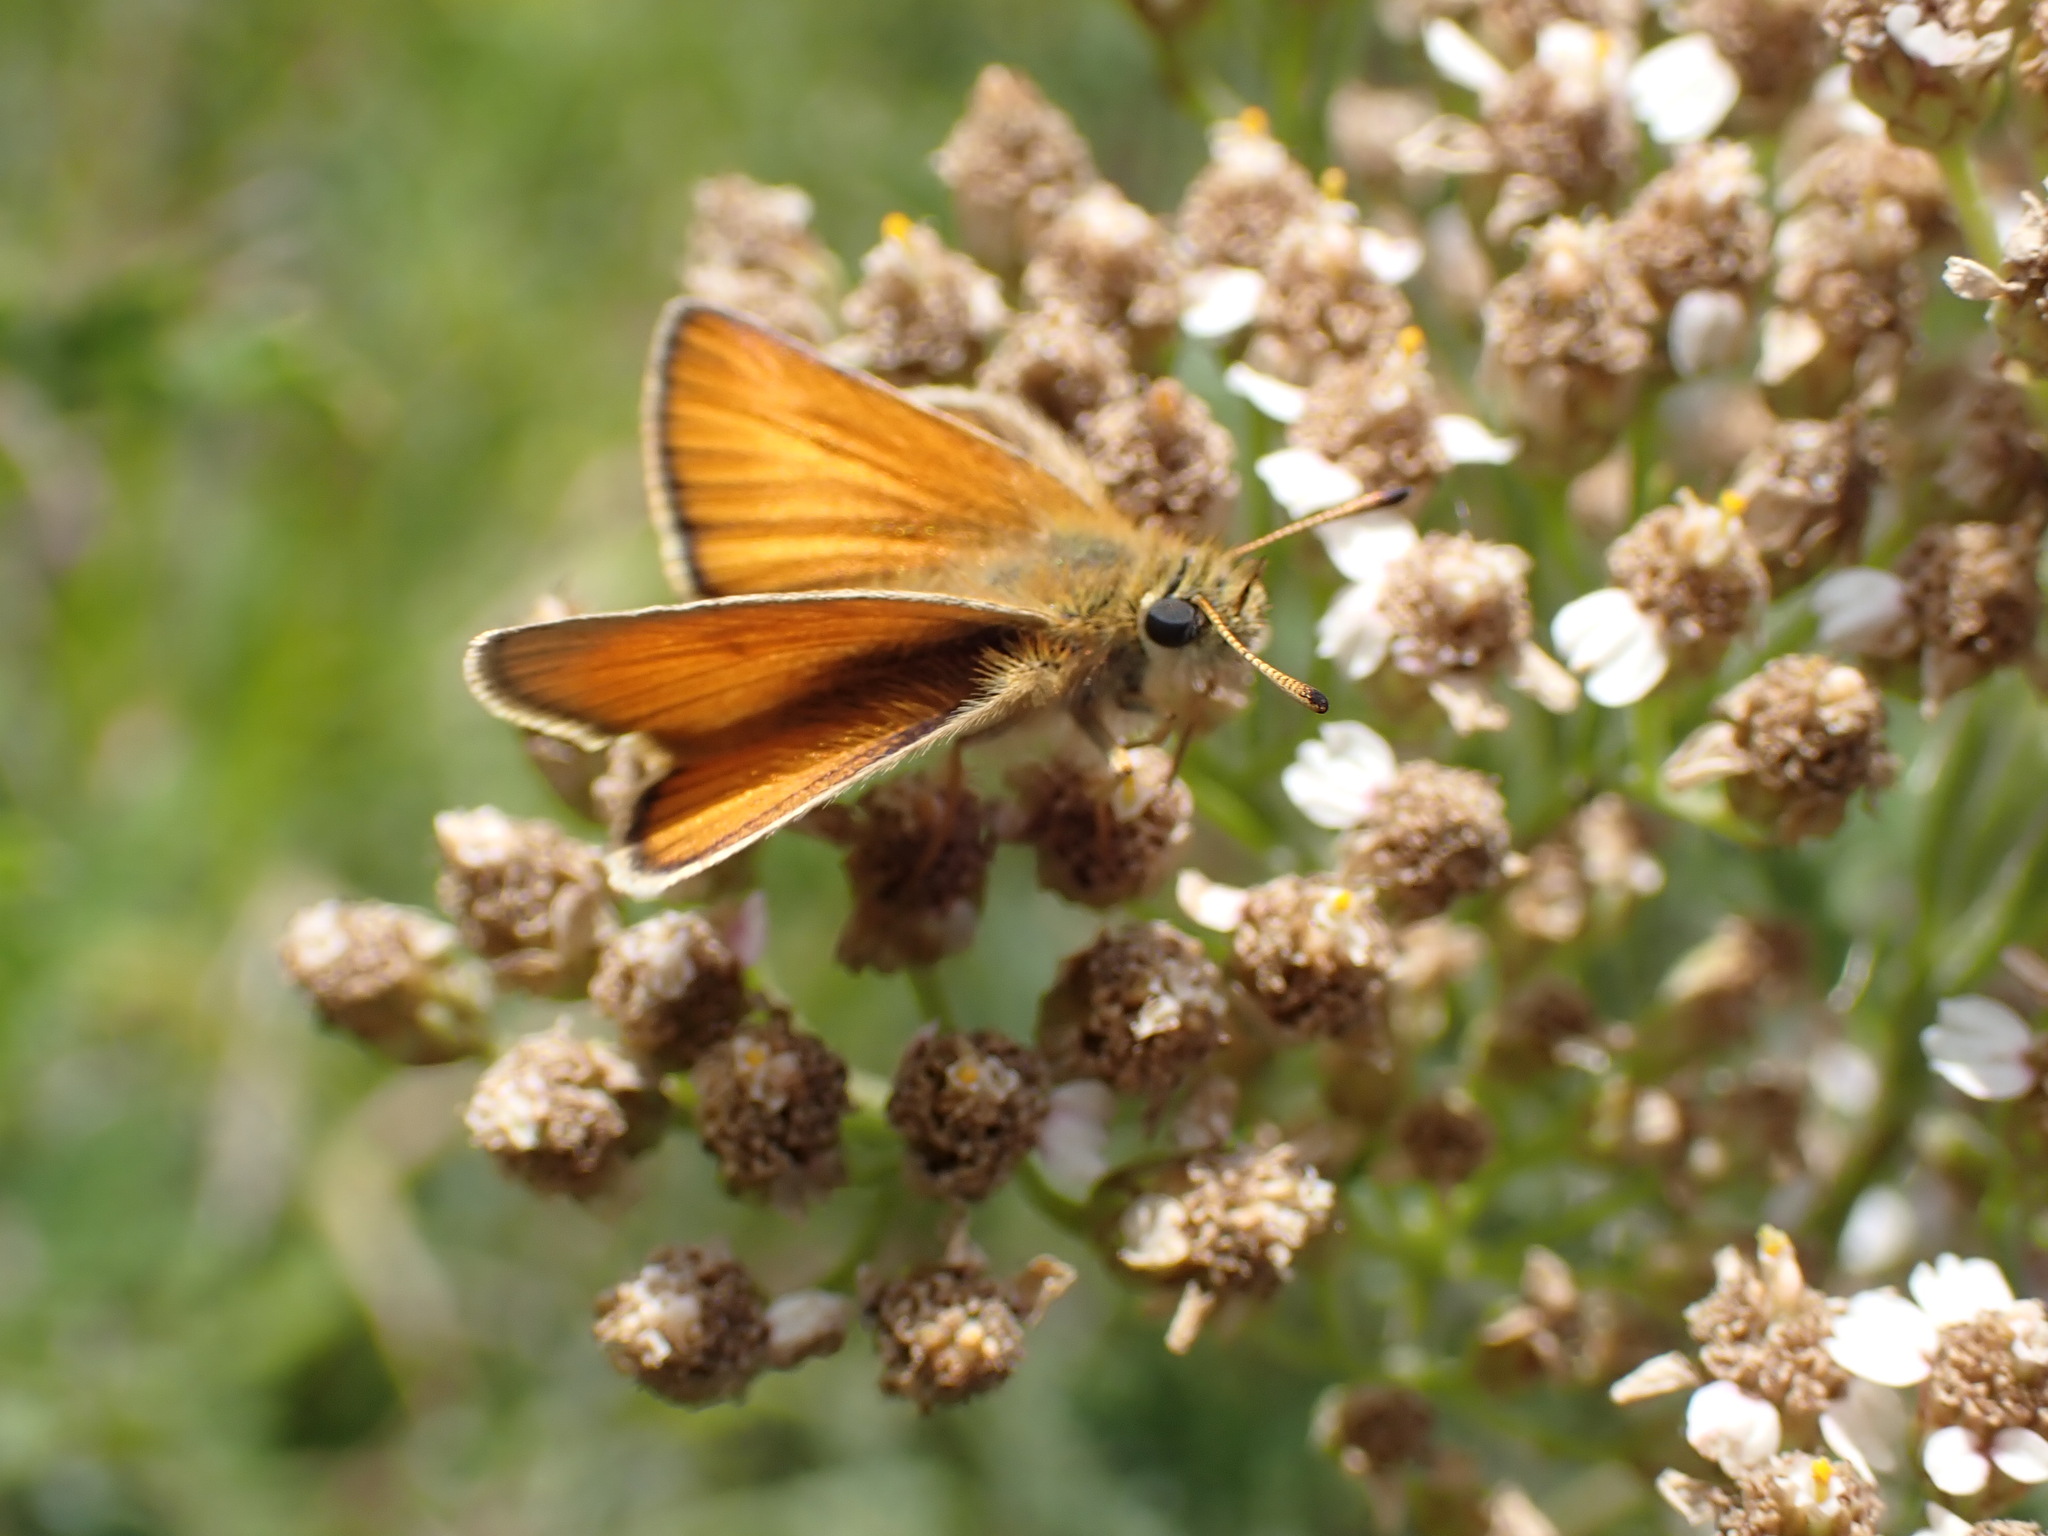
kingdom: Animalia
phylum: Arthropoda
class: Insecta
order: Lepidoptera
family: Hesperiidae
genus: Thymelicus
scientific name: Thymelicus lineola
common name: Essex skipper
